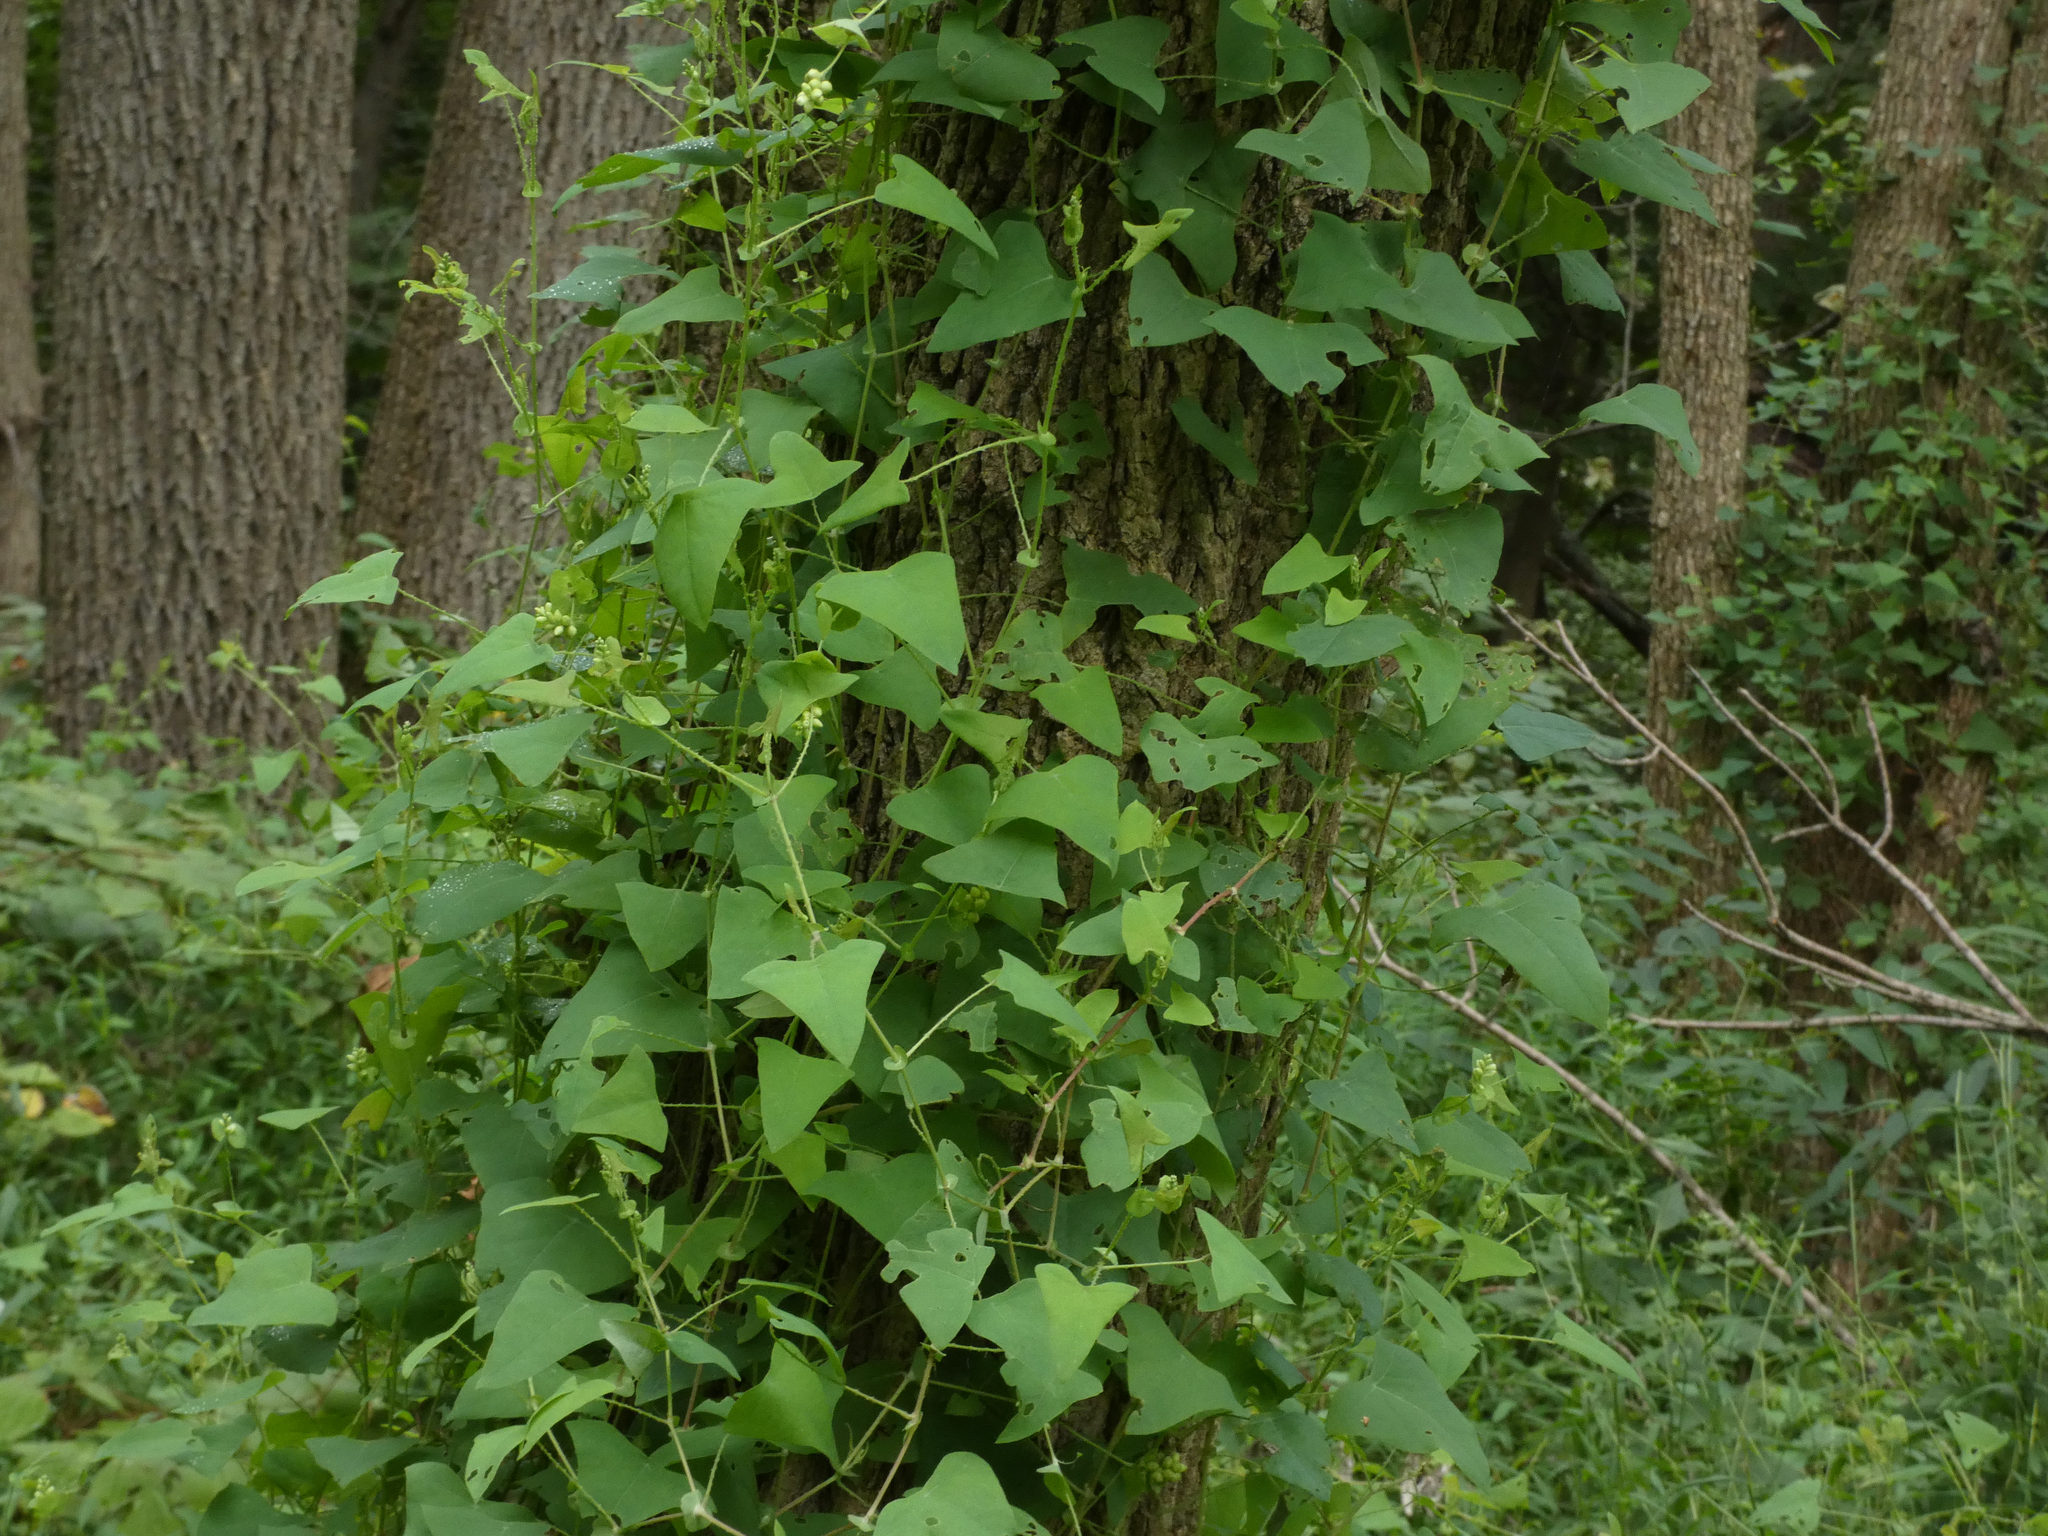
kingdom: Plantae
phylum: Tracheophyta
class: Magnoliopsida
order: Caryophyllales
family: Polygonaceae
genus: Persicaria
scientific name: Persicaria perfoliata
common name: Asiatic tearthumb
